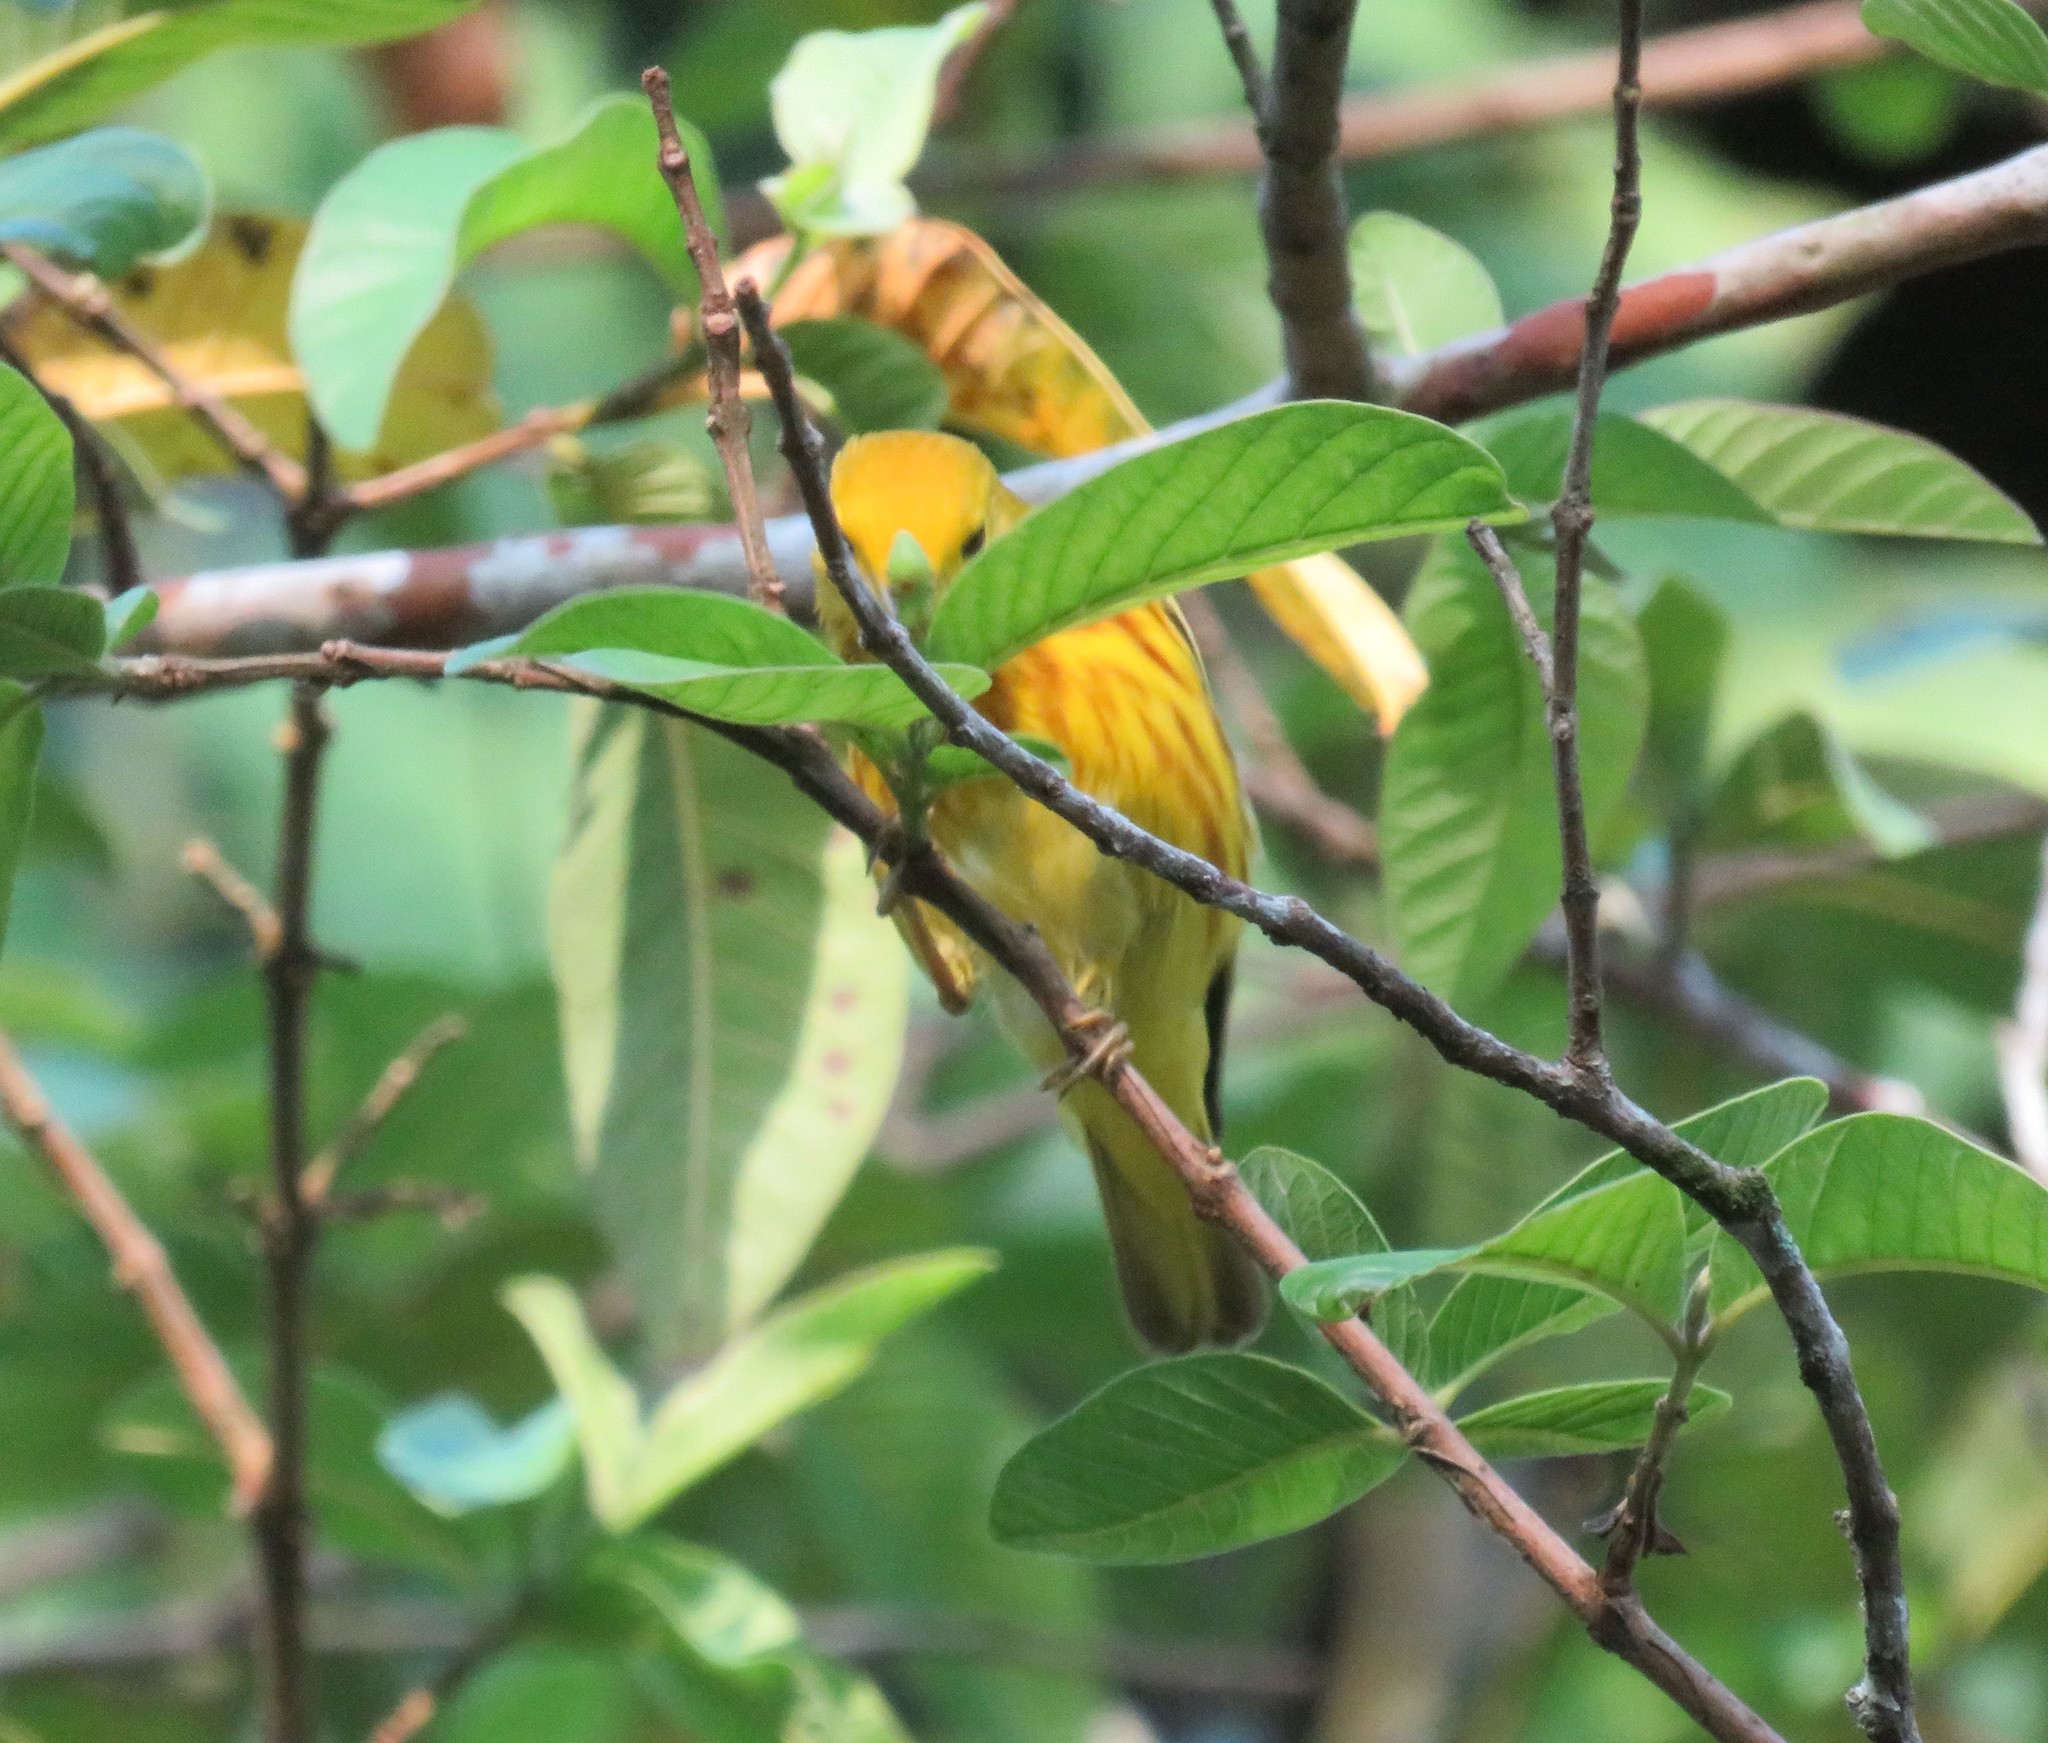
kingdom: Animalia
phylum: Chordata
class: Aves
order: Passeriformes
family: Parulidae
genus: Setophaga
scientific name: Setophaga petechia
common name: Yellow warbler
